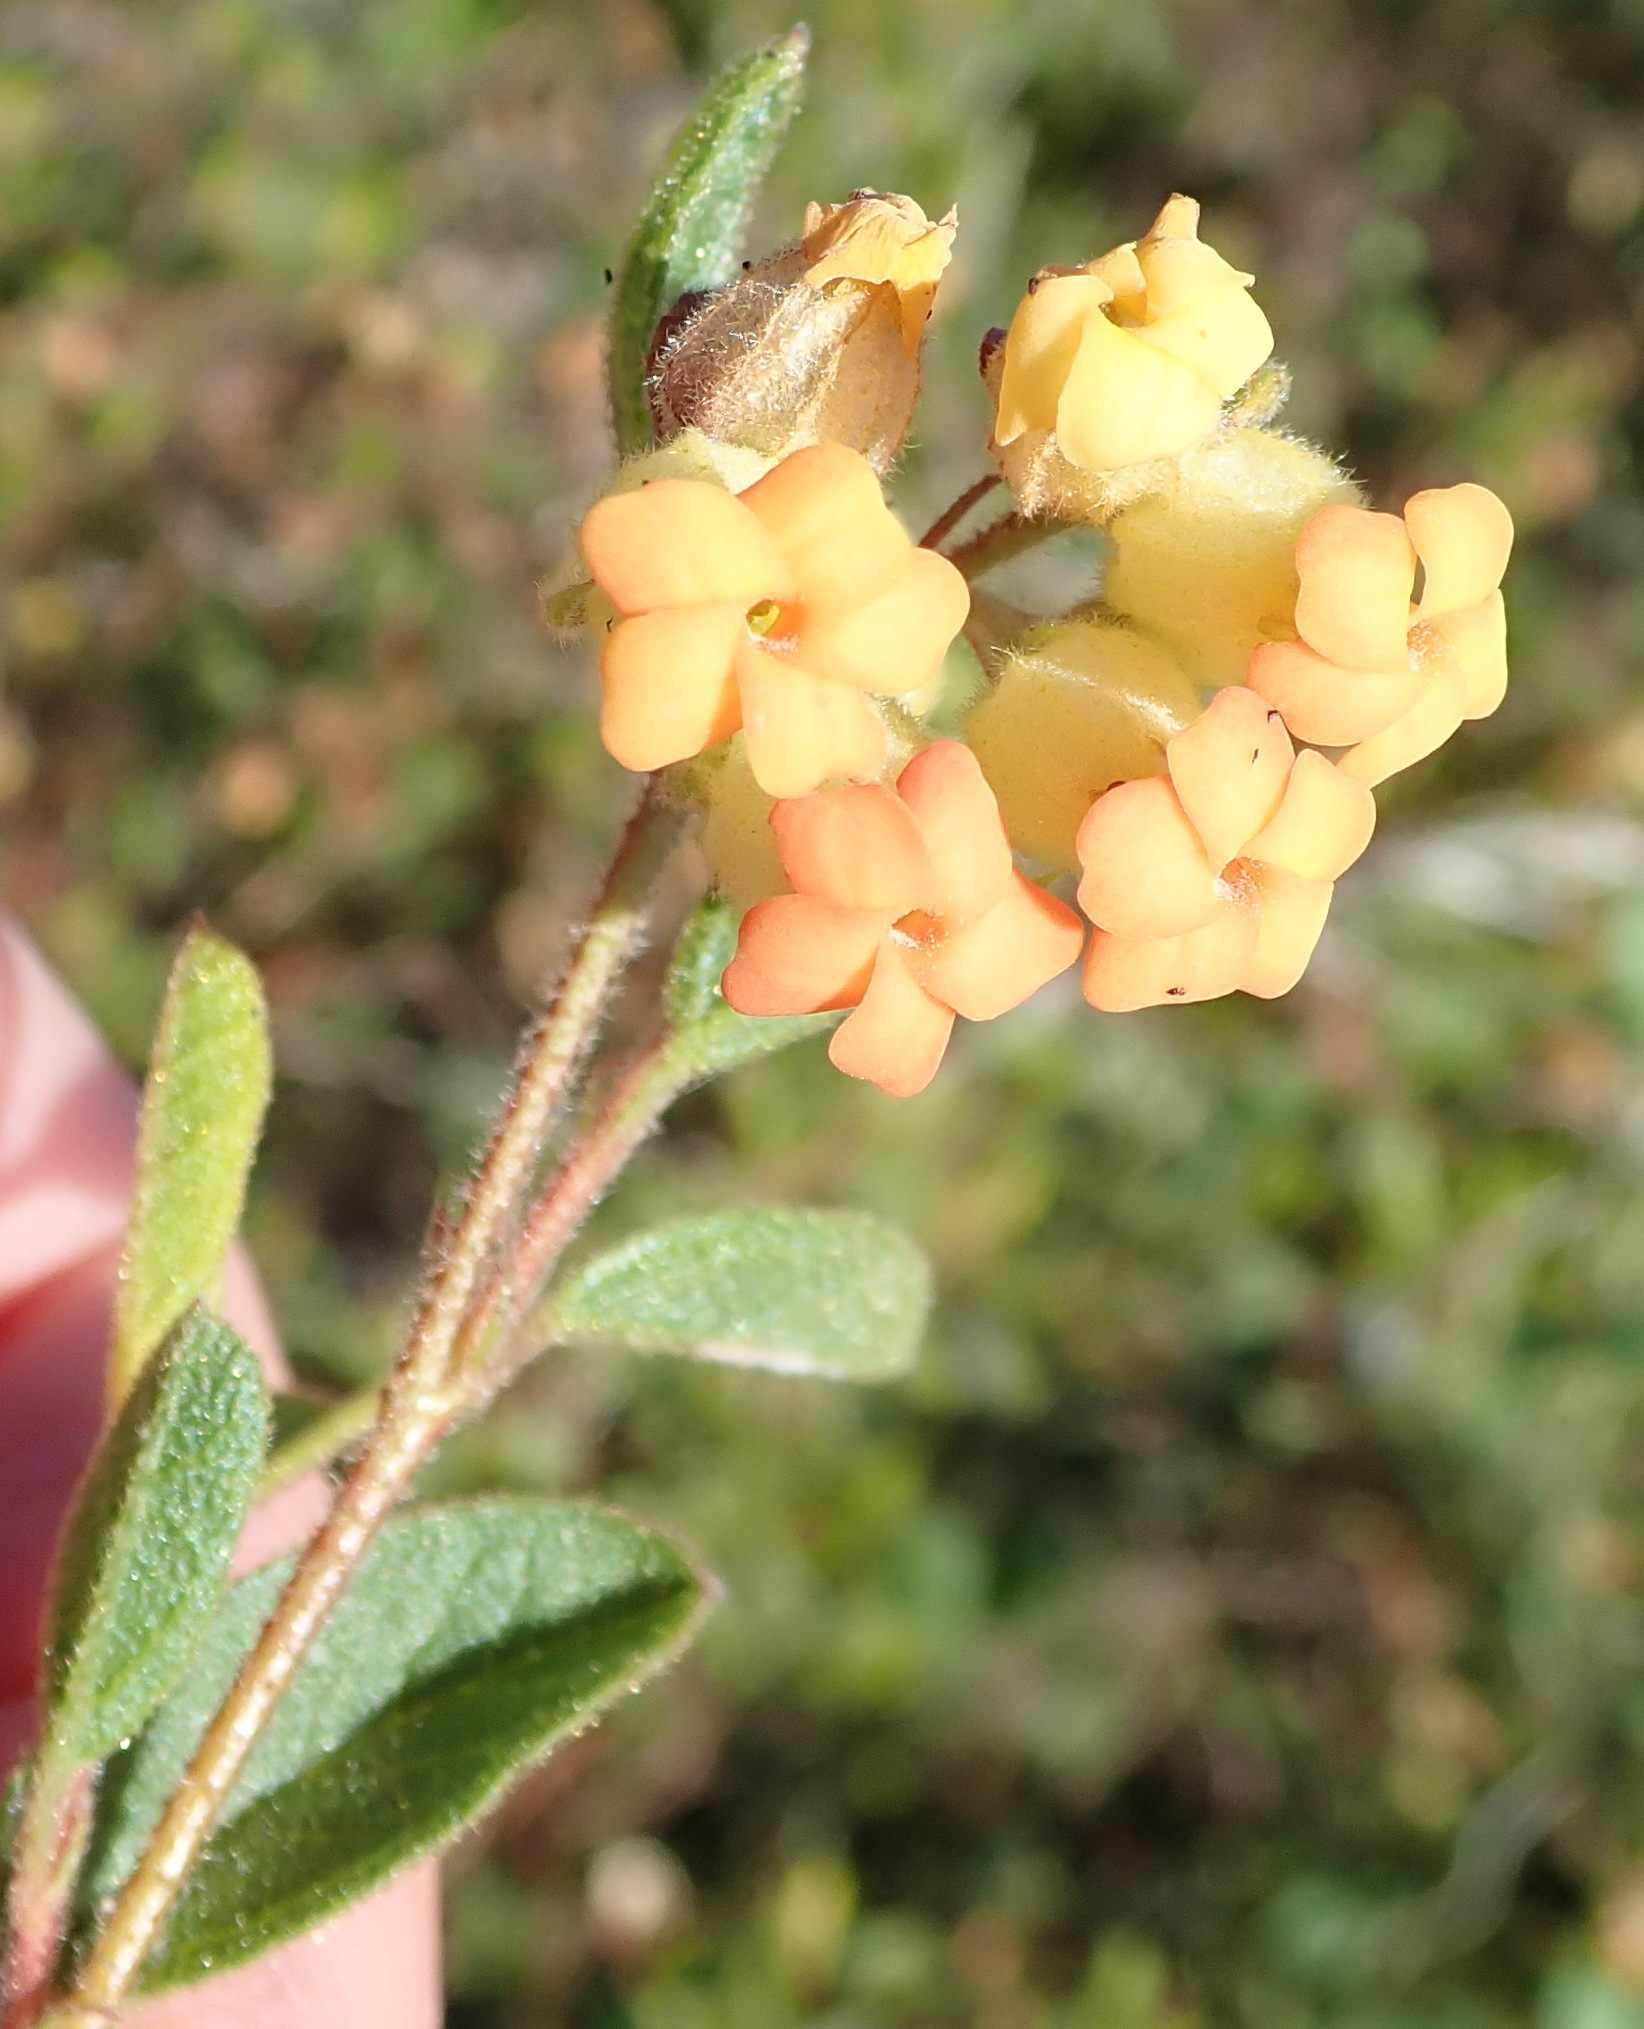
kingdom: Plantae
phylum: Tracheophyta
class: Magnoliopsida
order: Malvales
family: Malvaceae
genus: Hermannia
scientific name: Hermannia salviifolia
